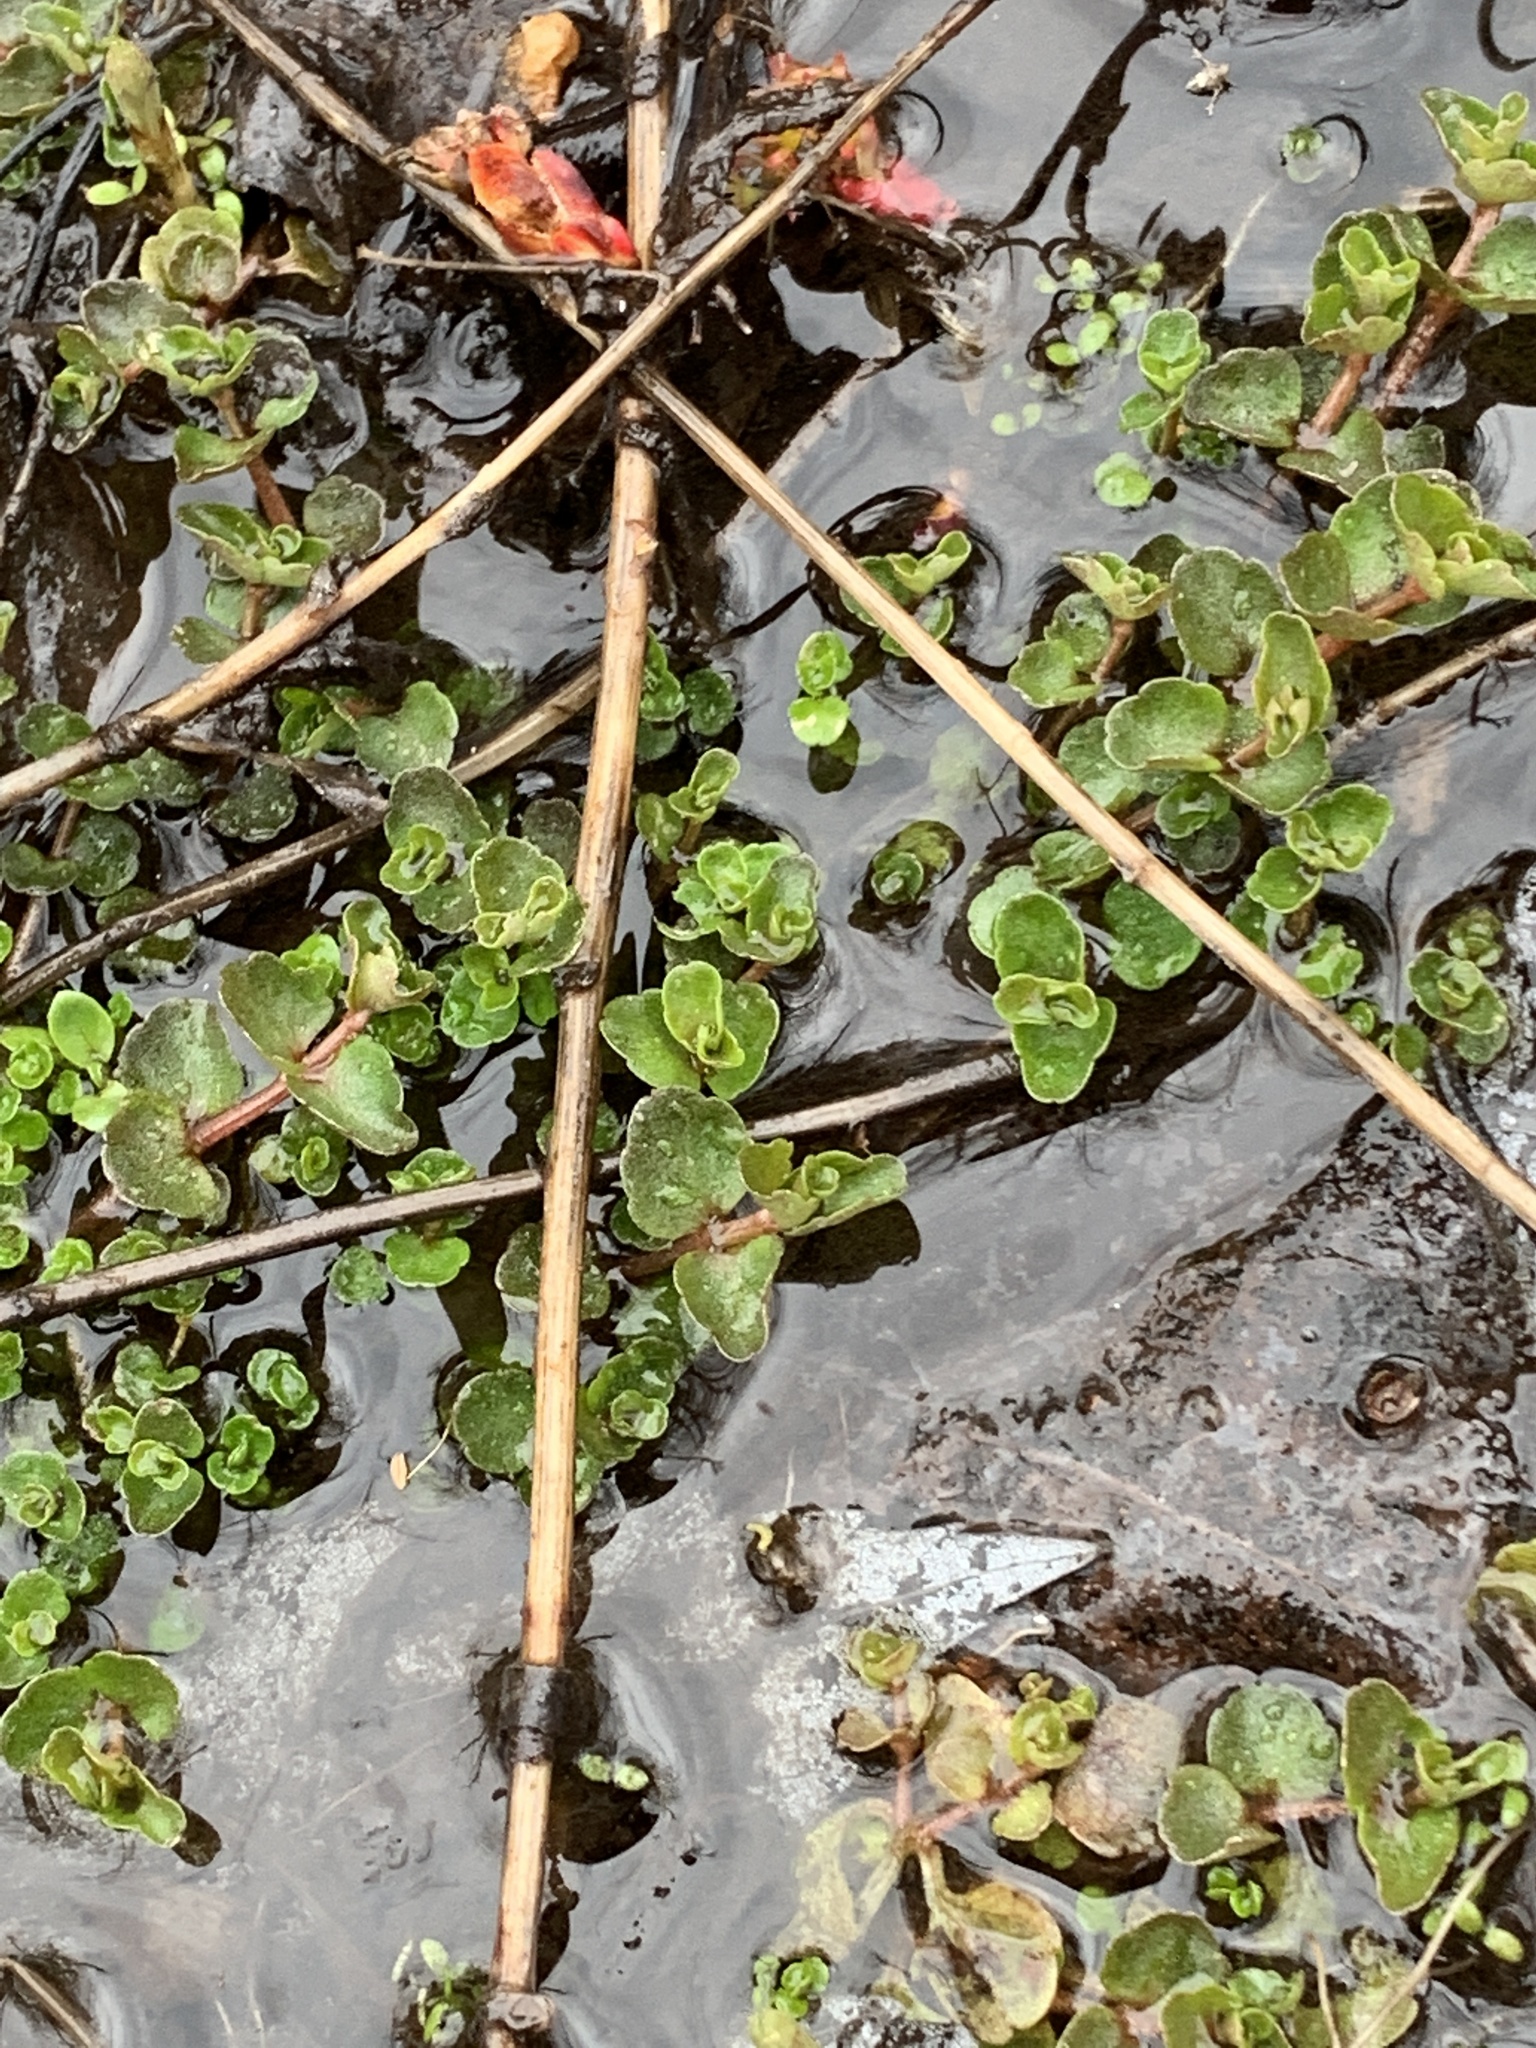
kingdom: Plantae
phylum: Tracheophyta
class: Magnoliopsida
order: Saxifragales
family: Saxifragaceae
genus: Chrysosplenium
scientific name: Chrysosplenium americanum
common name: American golden-saxifrage
